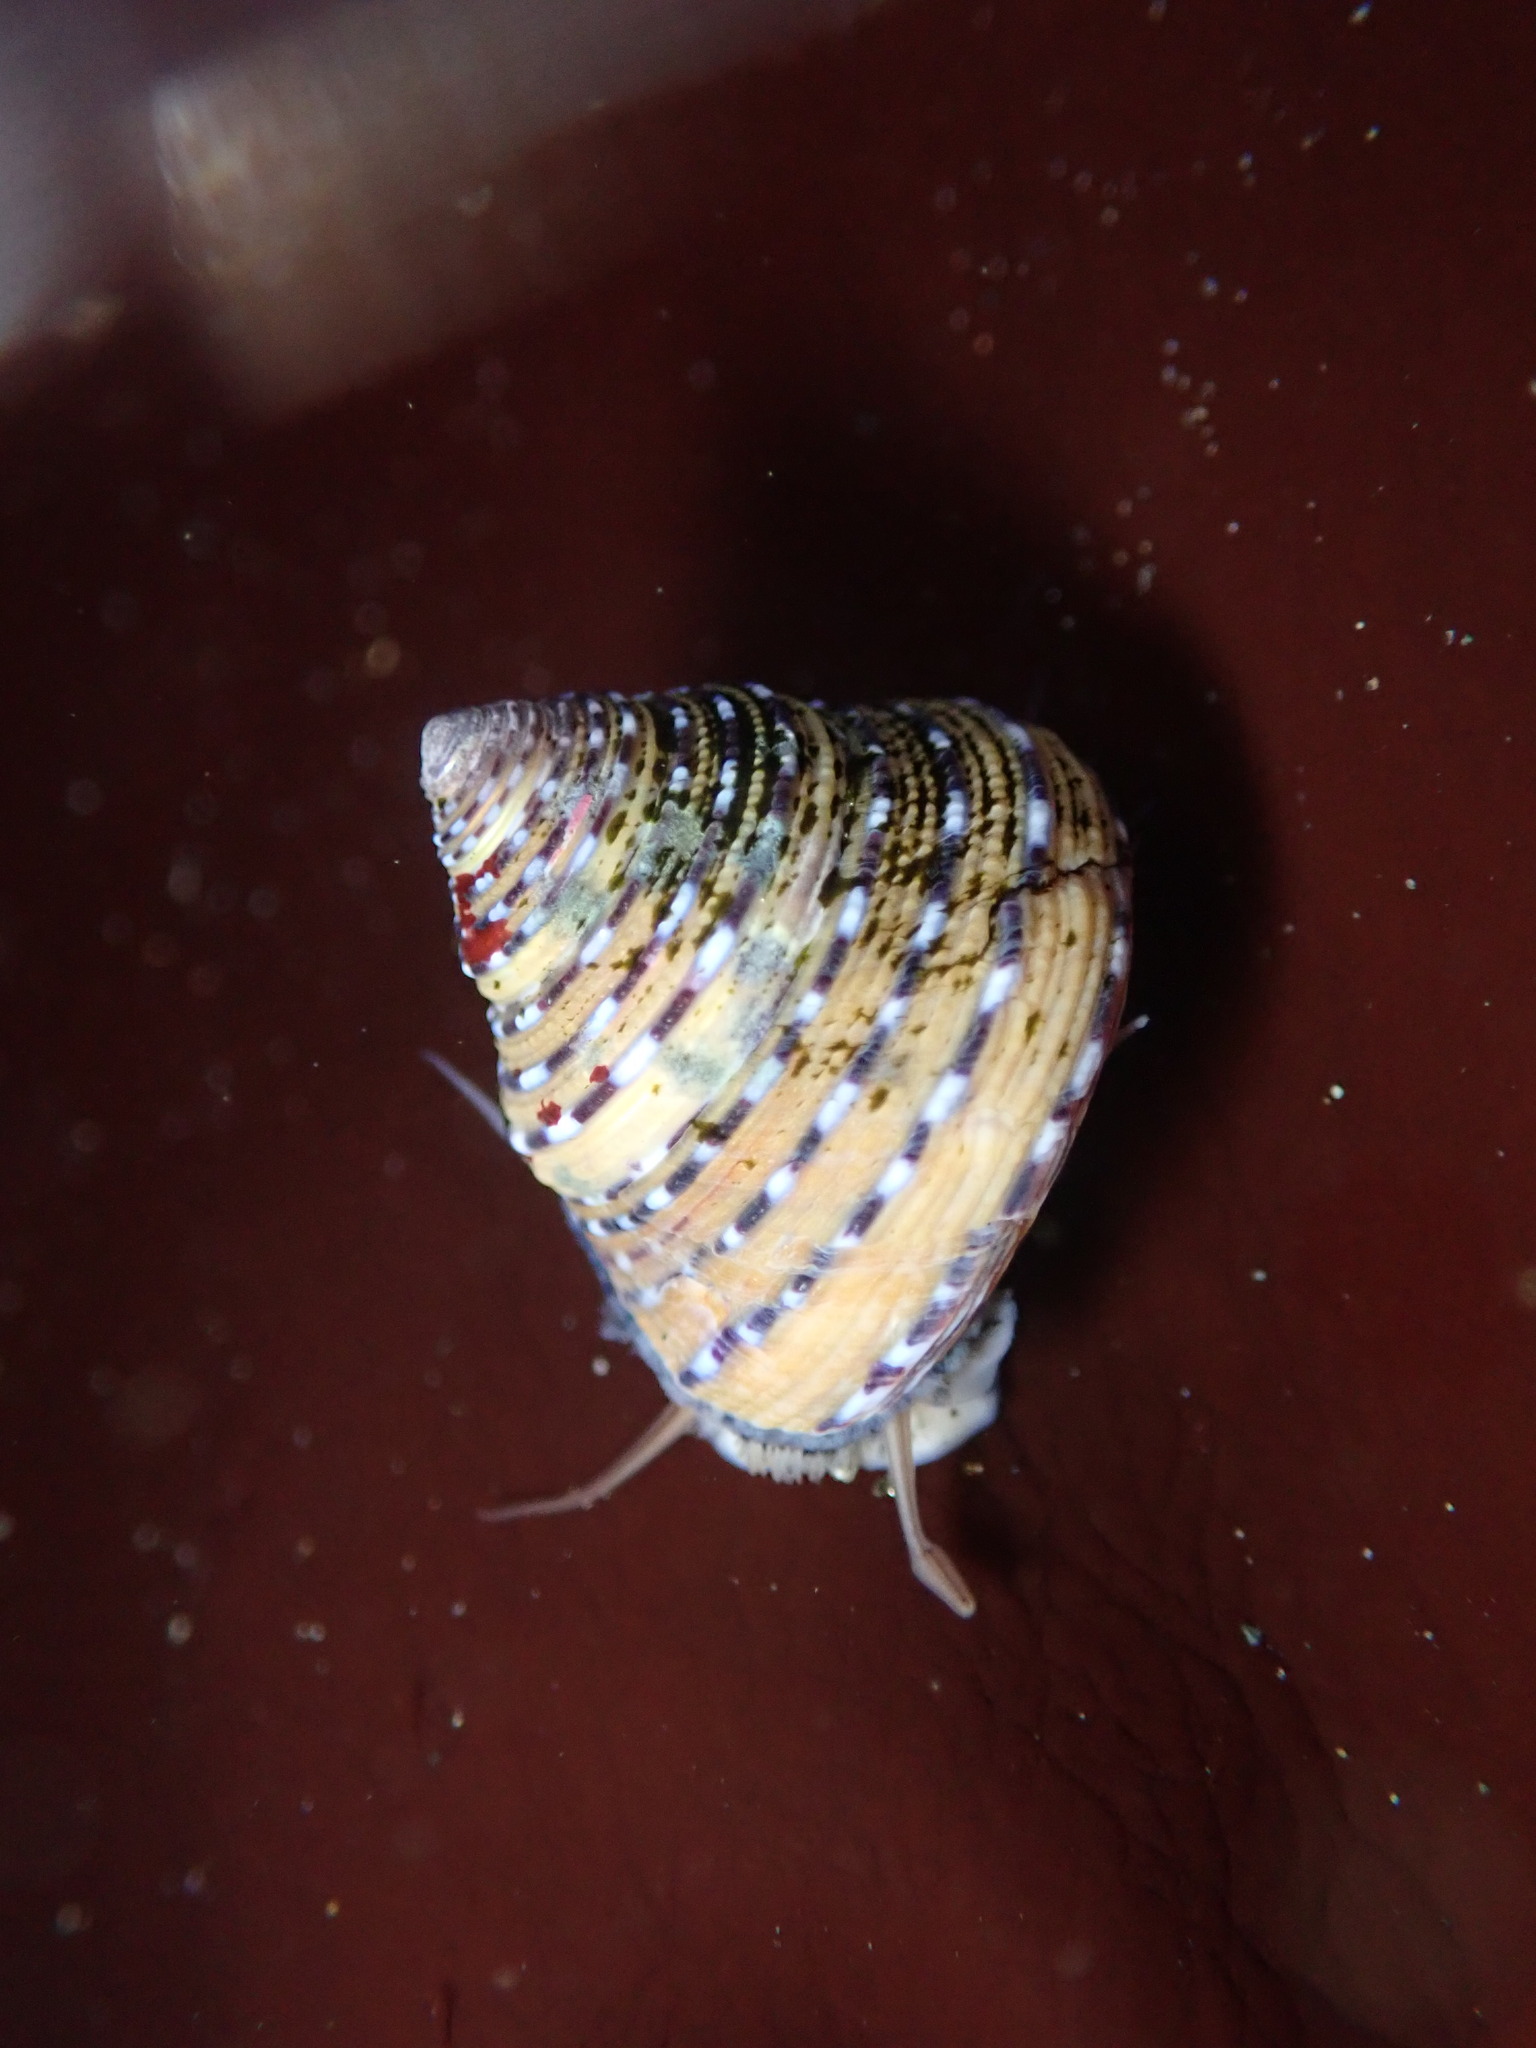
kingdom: Animalia
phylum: Mollusca
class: Gastropoda
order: Trochida
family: Calliostomatidae
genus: Calliostoma
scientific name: Calliostoma tricolor
